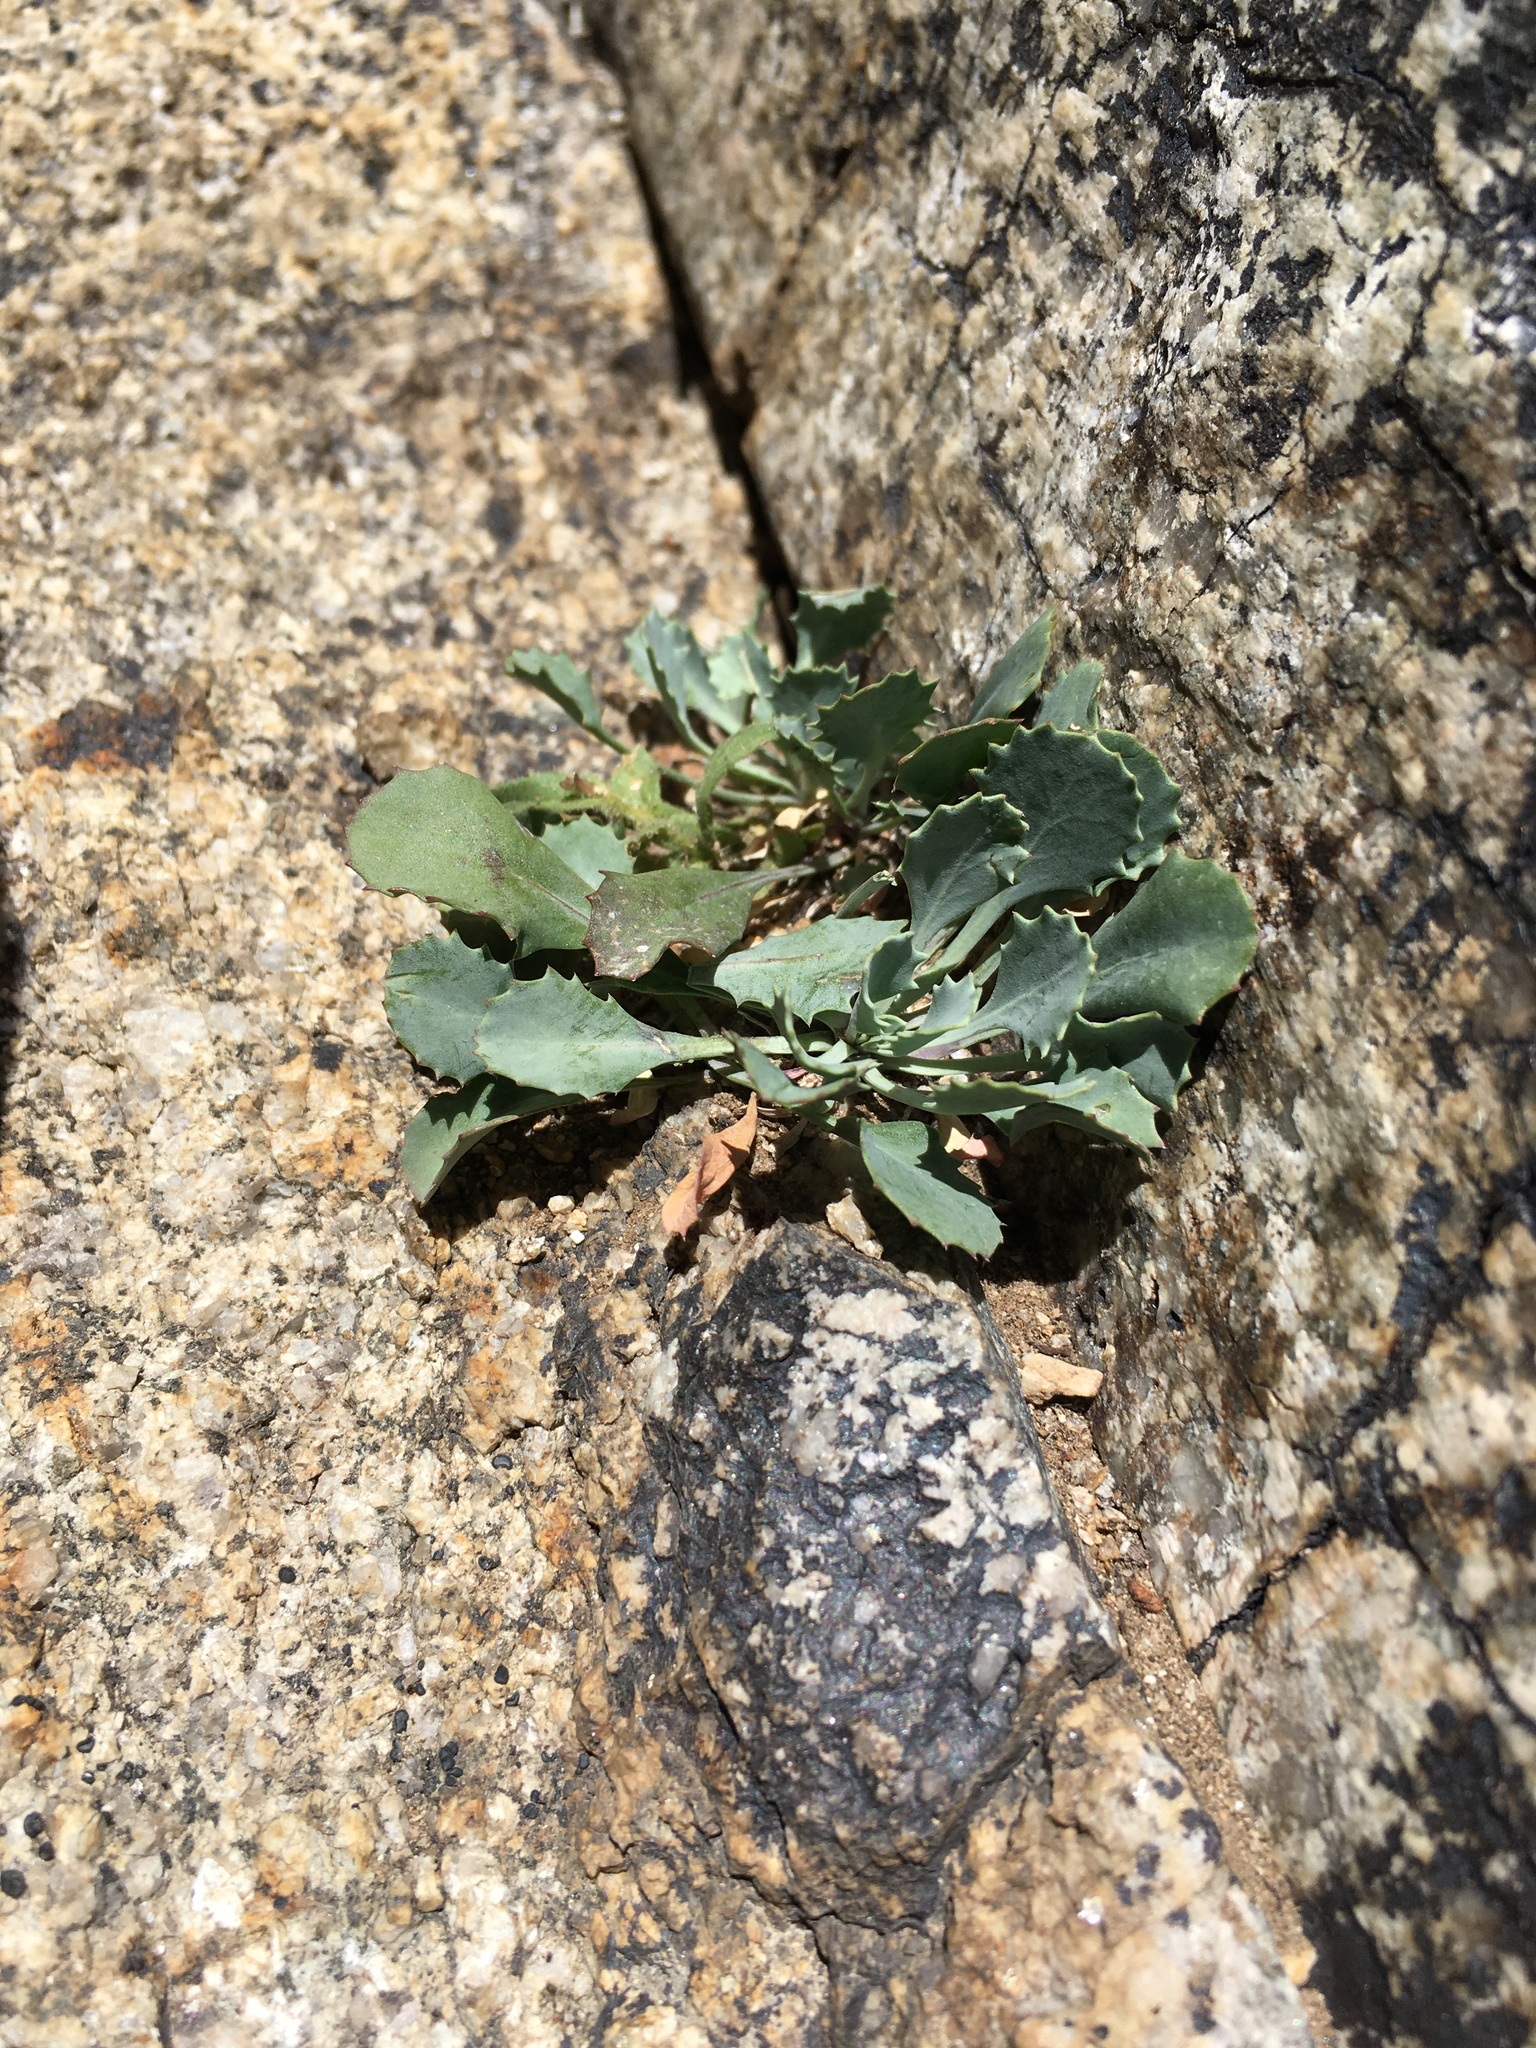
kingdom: Plantae
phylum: Tracheophyta
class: Magnoliopsida
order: Brassicales
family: Brassicaceae
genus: Streptanthus
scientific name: Streptanthus cordatus
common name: Heart-leaf jewel-flower
